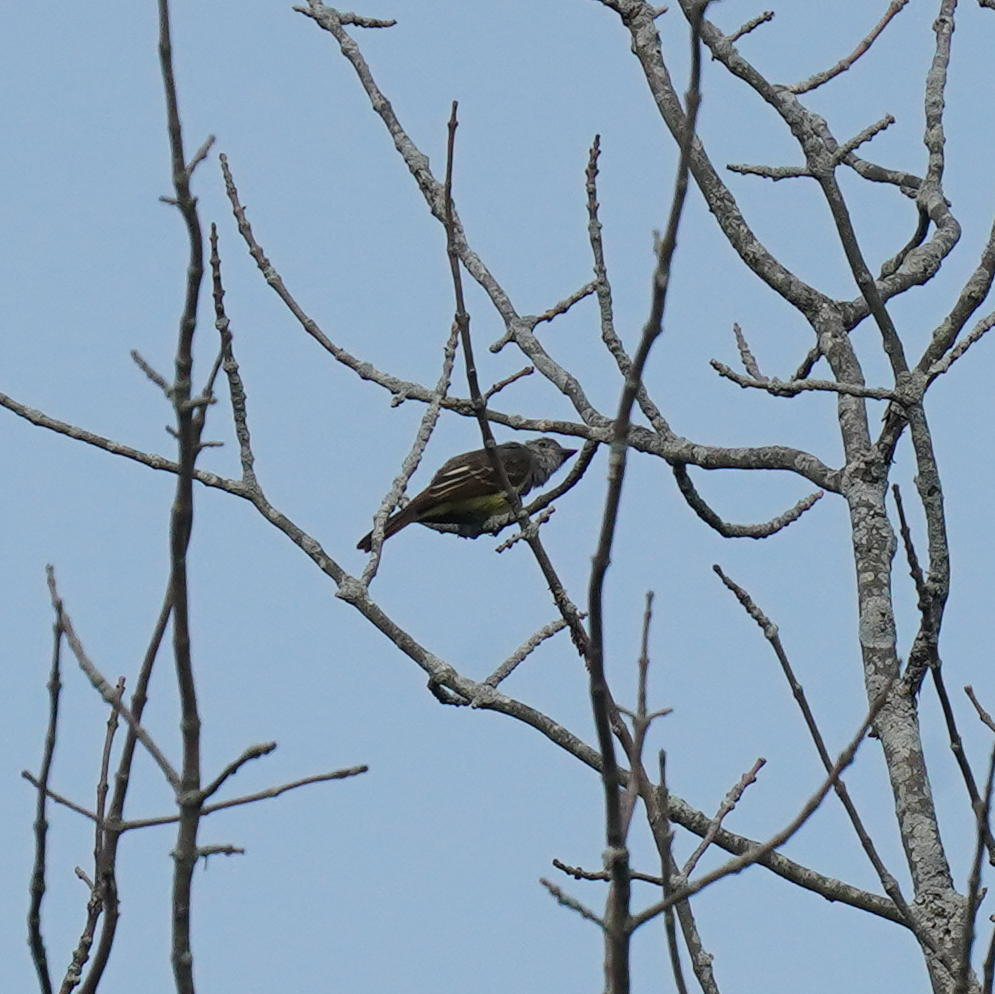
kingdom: Animalia
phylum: Chordata
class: Aves
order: Passeriformes
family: Tyrannidae
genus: Myiarchus
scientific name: Myiarchus crinitus
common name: Great crested flycatcher
